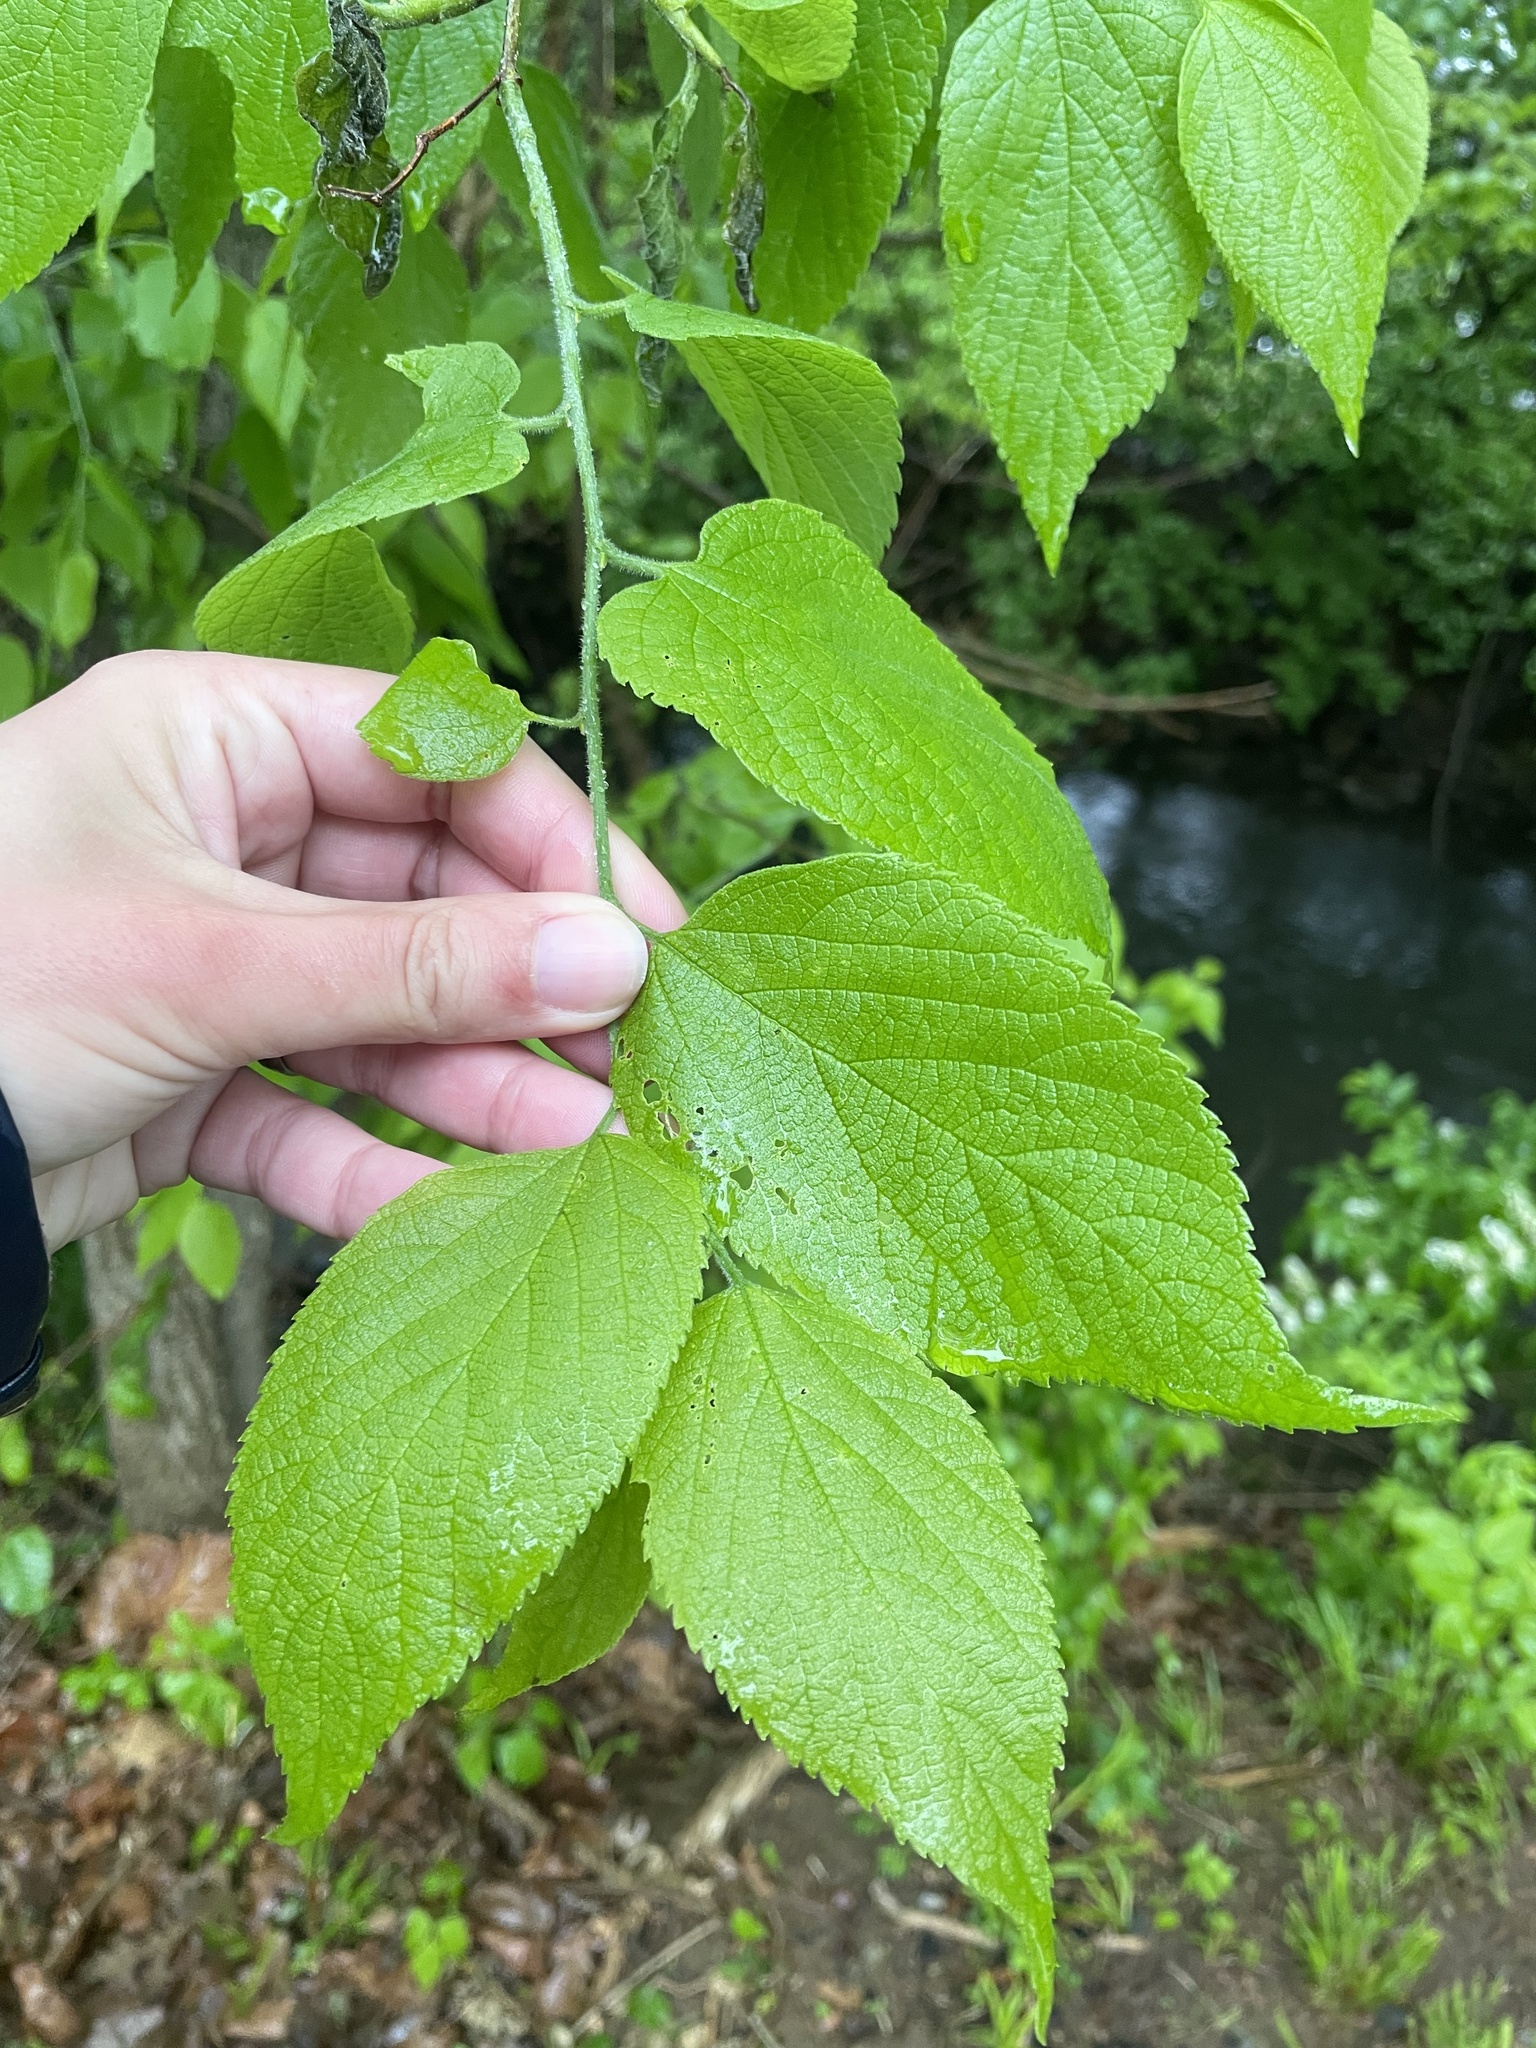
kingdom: Plantae
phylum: Tracheophyta
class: Magnoliopsida
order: Rosales
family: Cannabaceae
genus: Celtis
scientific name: Celtis occidentalis
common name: Common hackberry
